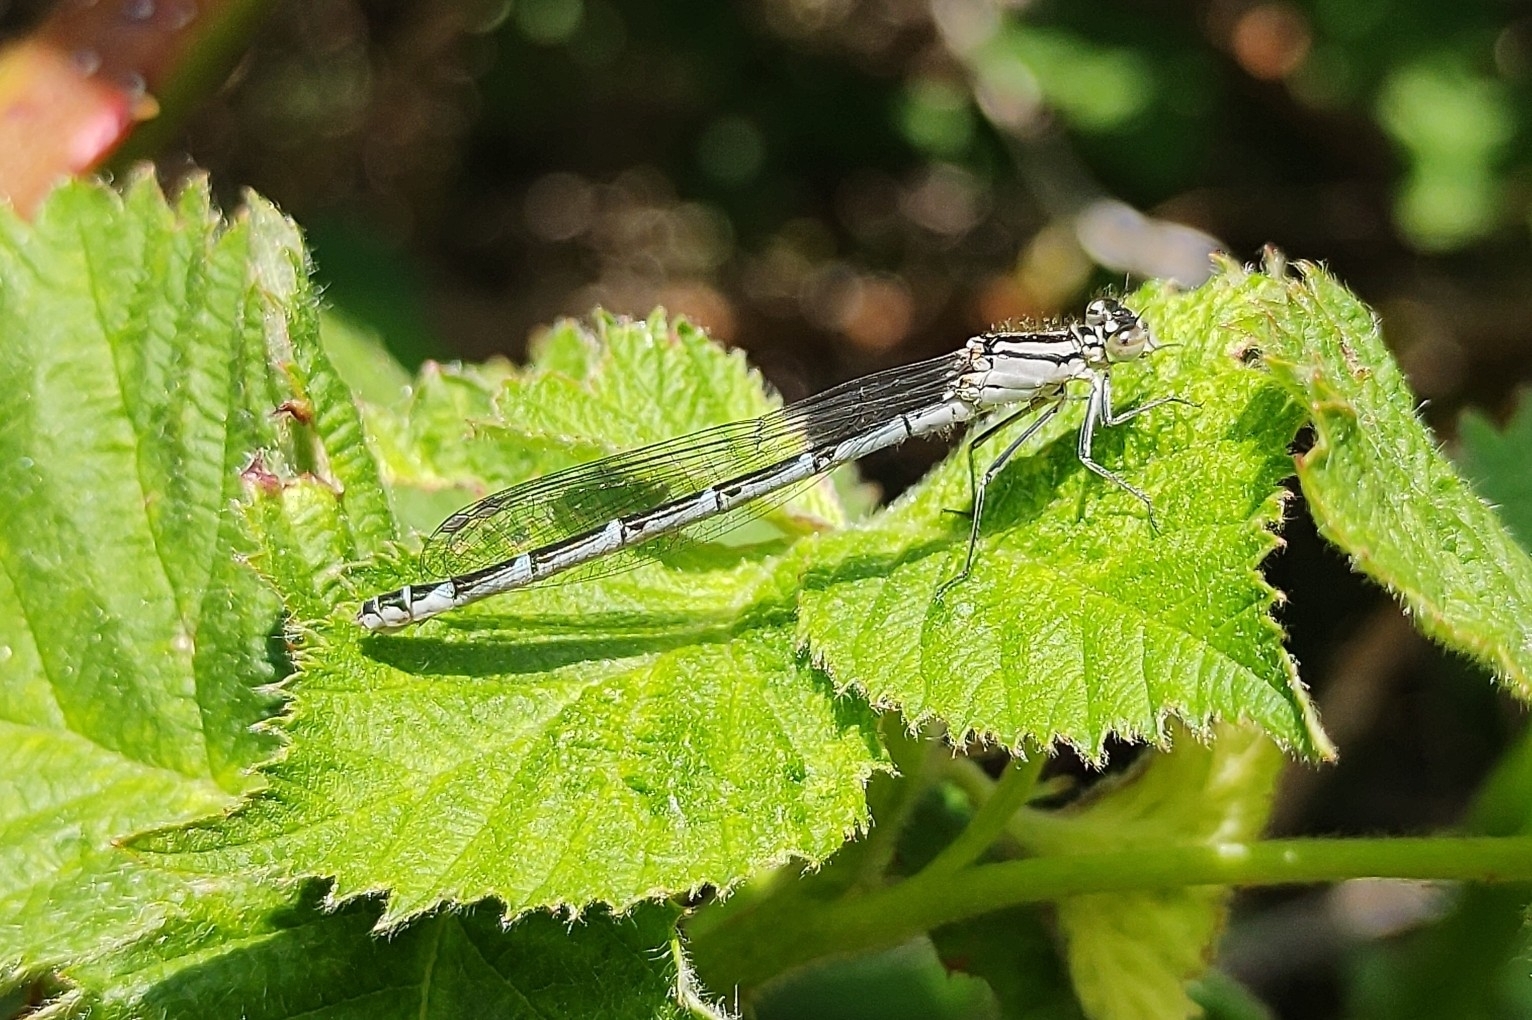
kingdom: Animalia
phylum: Arthropoda
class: Insecta
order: Odonata
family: Coenagrionidae
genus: Enallagma
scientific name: Enallagma cyathigerum
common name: Common blue damselfly
